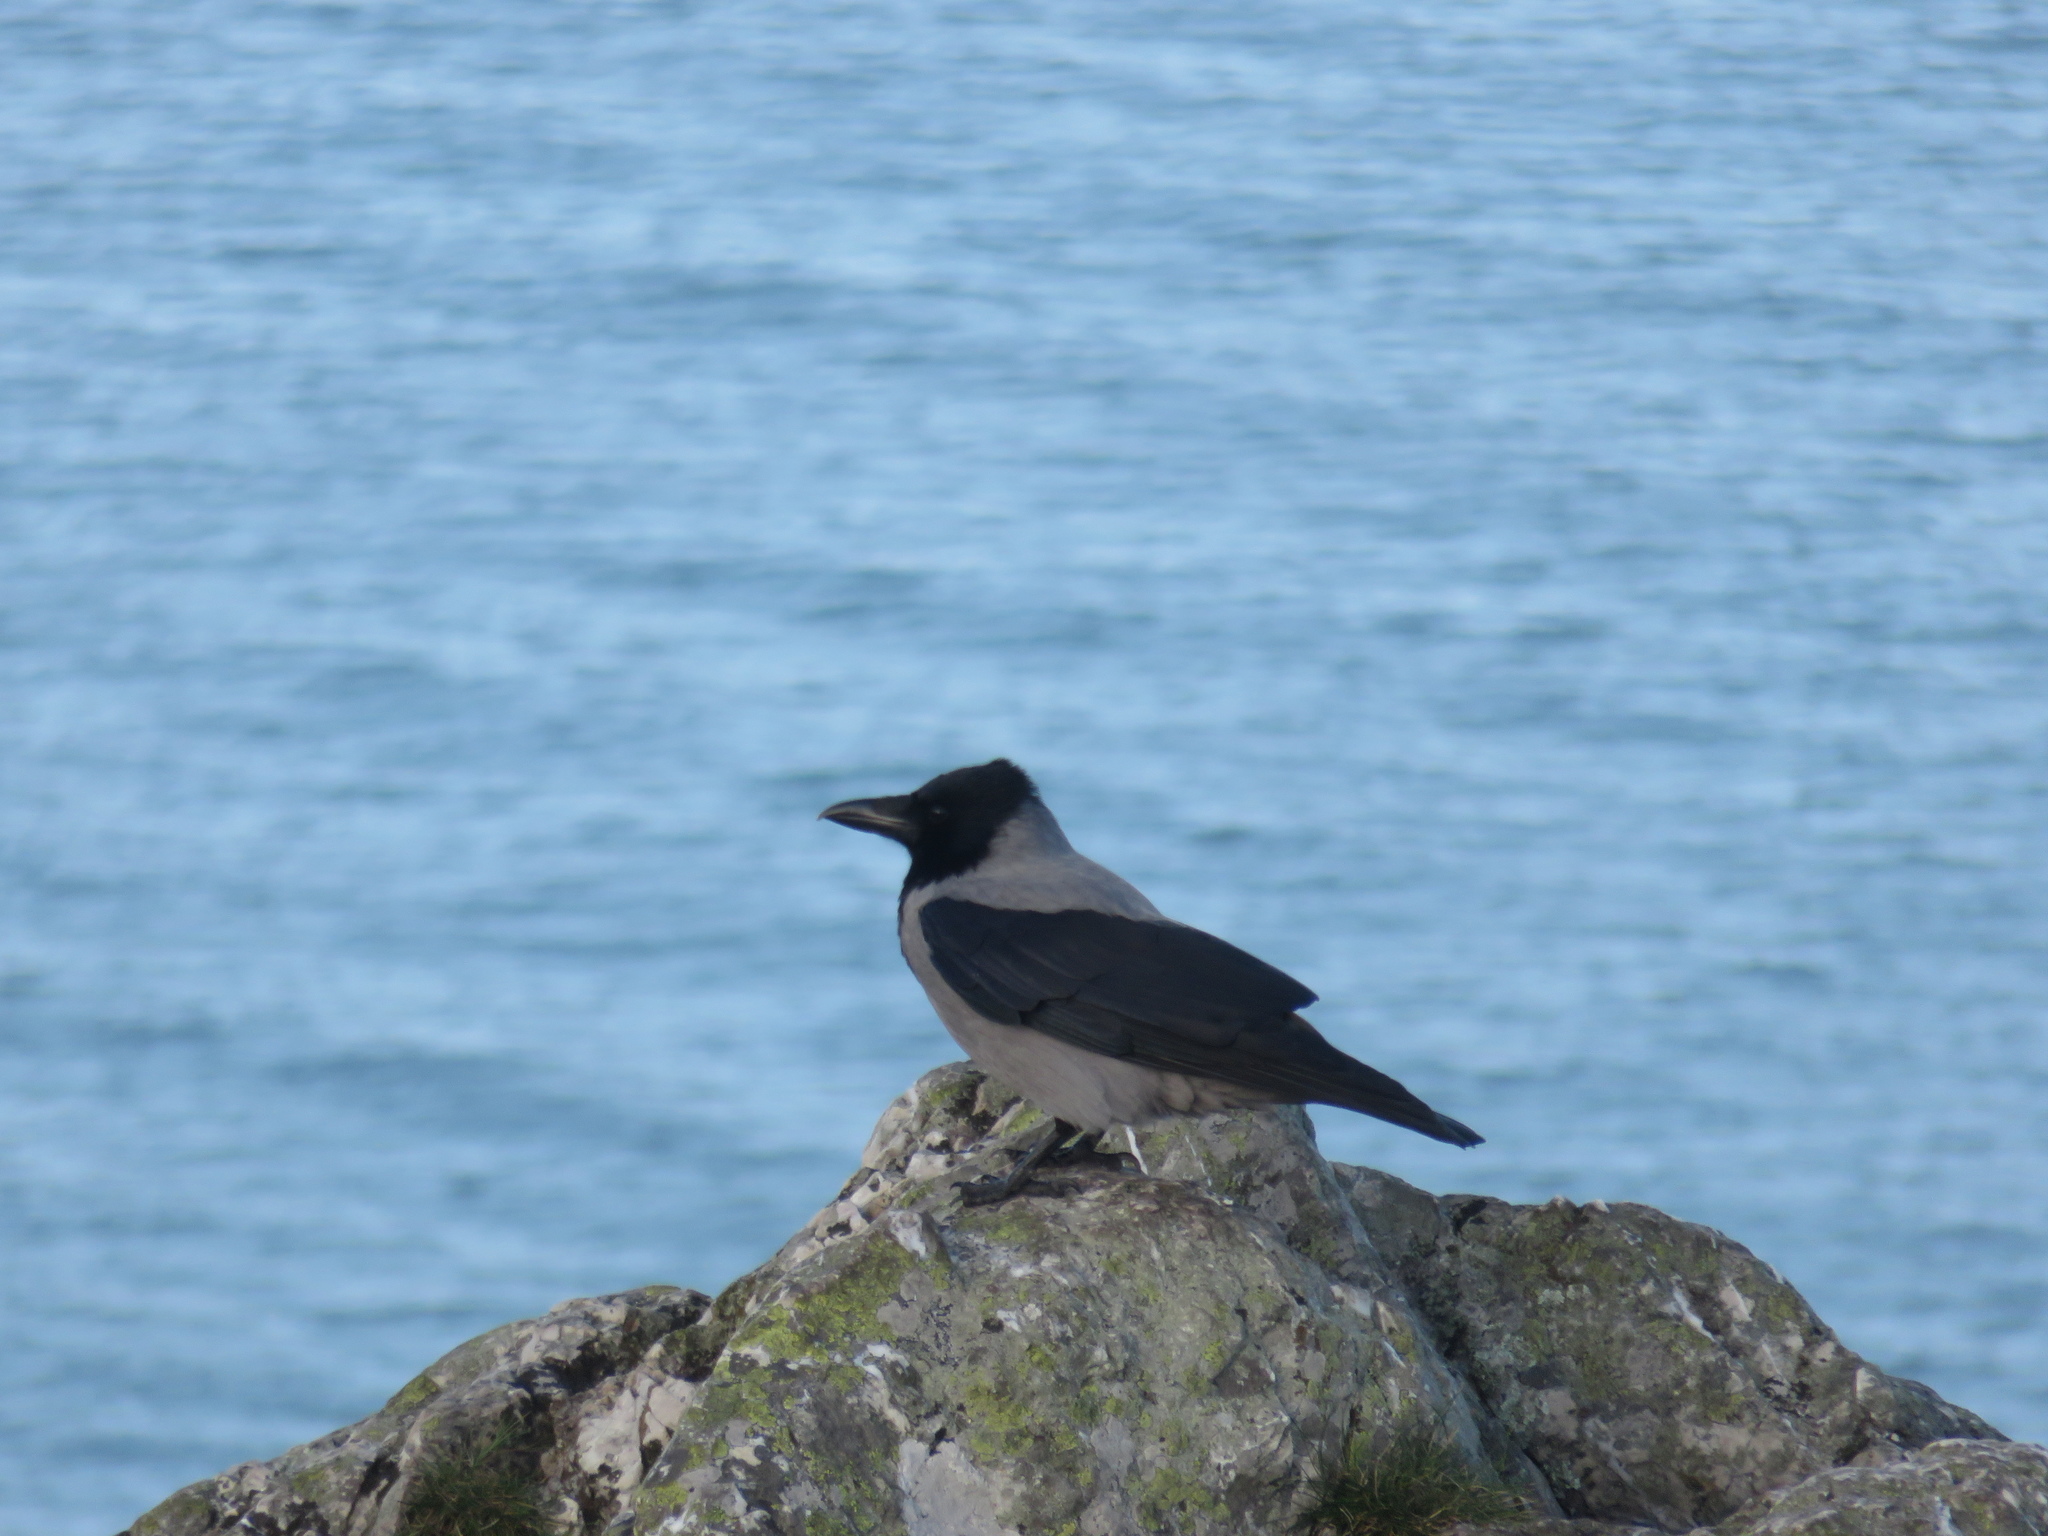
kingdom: Animalia
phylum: Chordata
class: Aves
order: Passeriformes
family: Corvidae
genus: Corvus
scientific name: Corvus cornix
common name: Hooded crow
